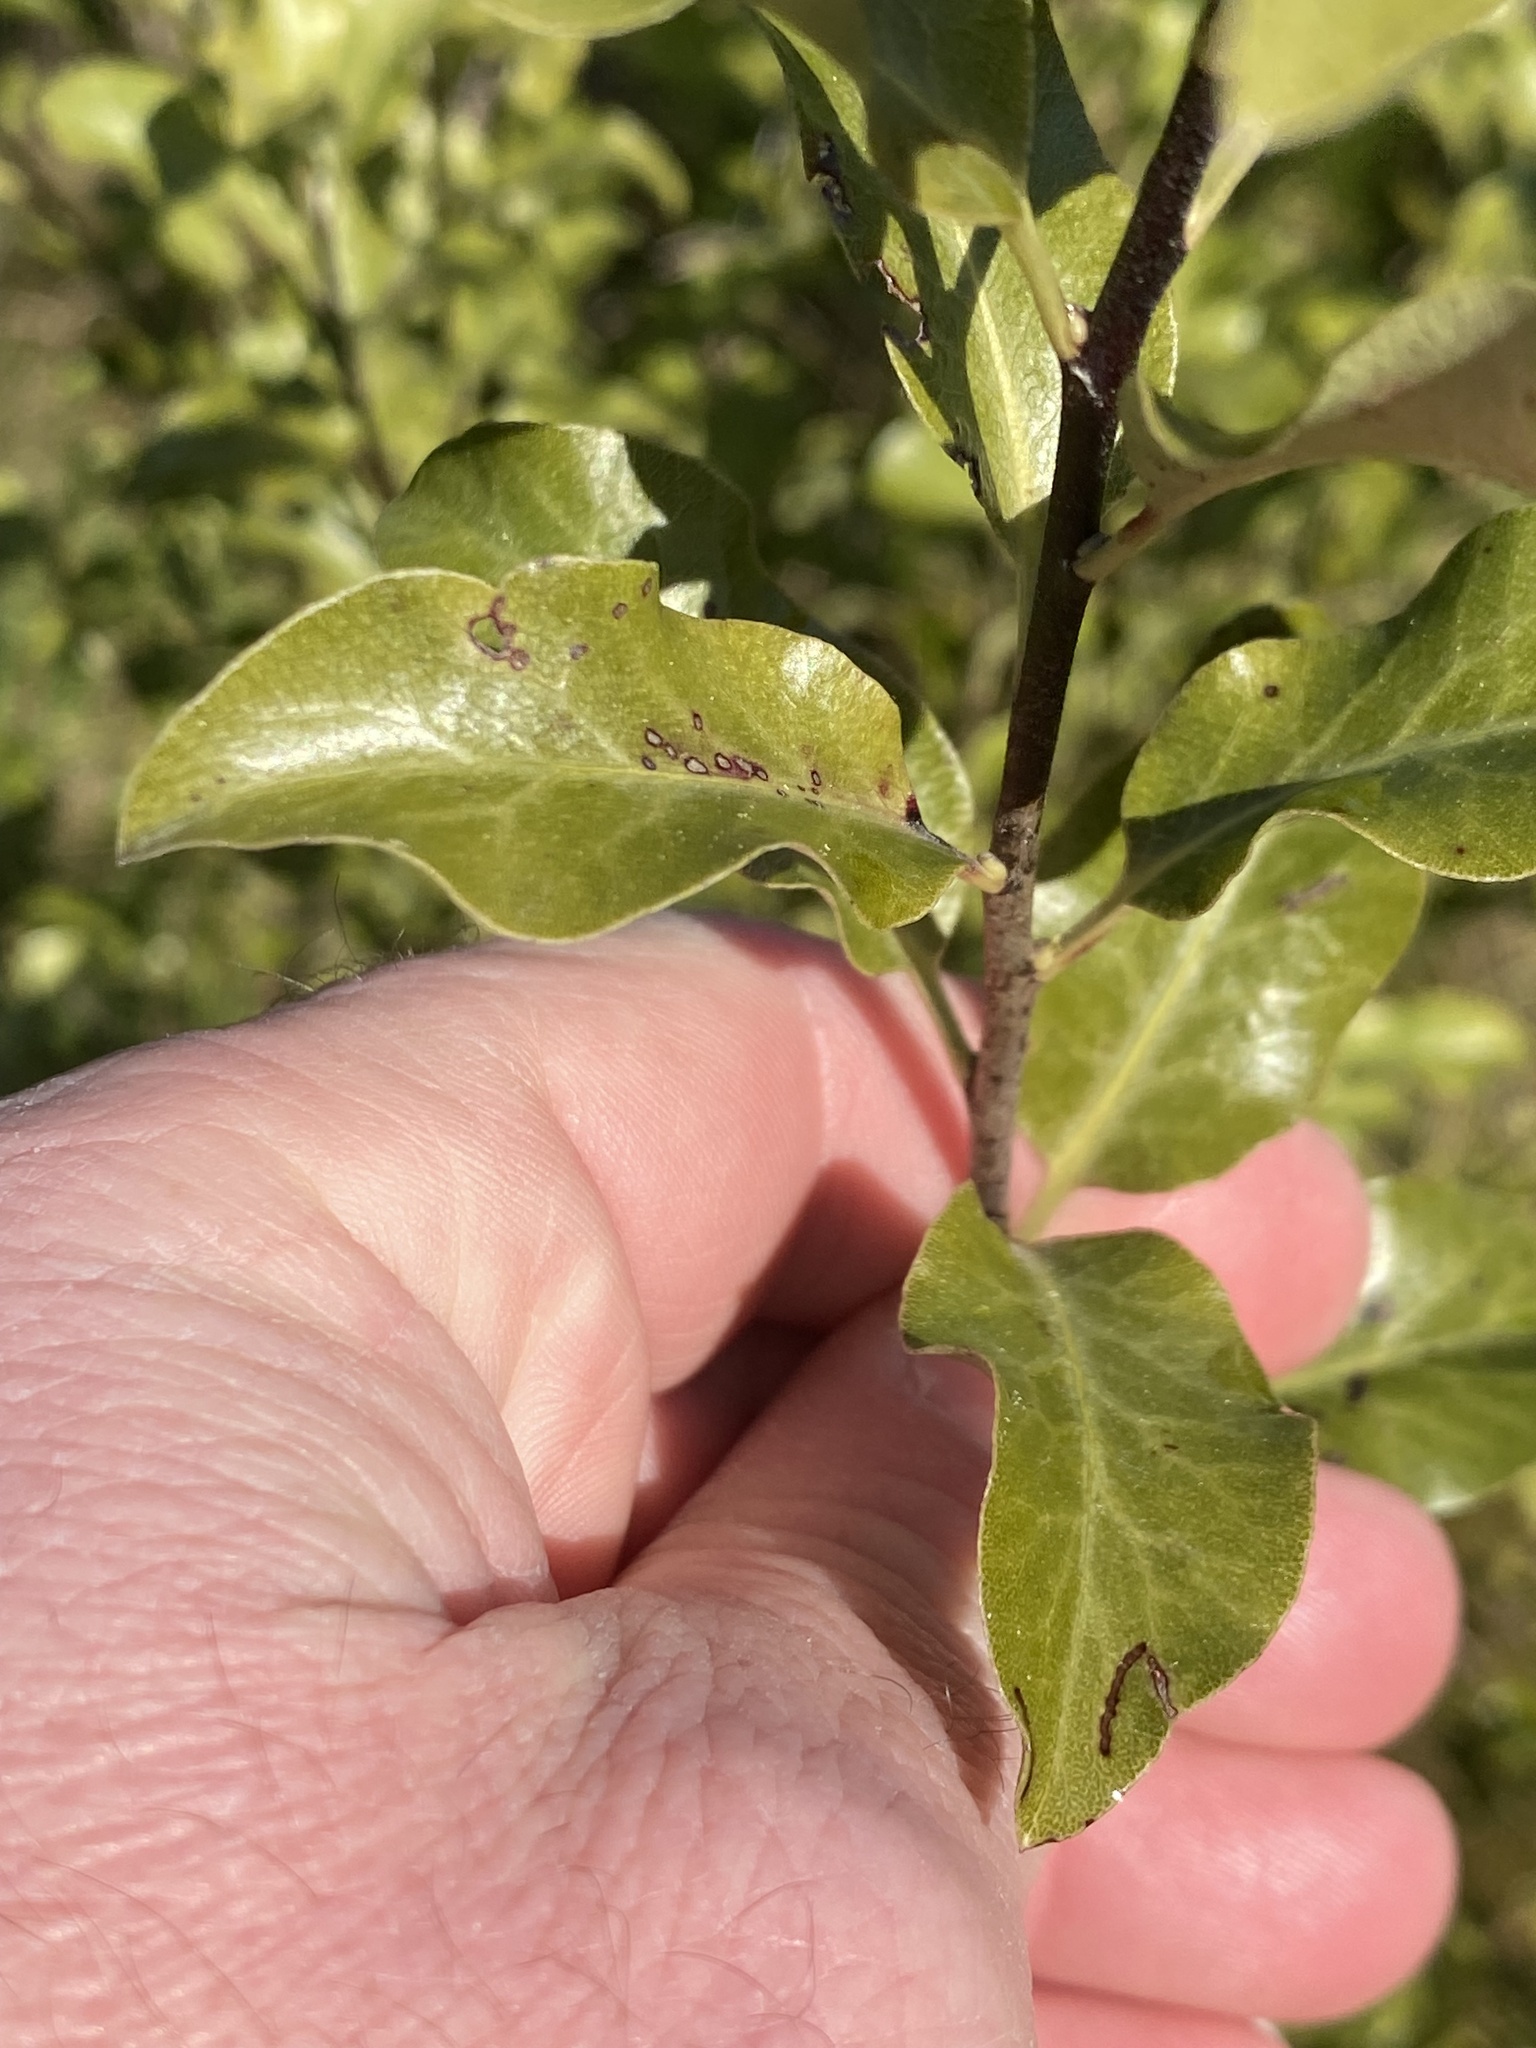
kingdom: Plantae
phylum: Tracheophyta
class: Magnoliopsida
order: Apiales
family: Pittosporaceae
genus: Pittosporum
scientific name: Pittosporum tenuifolium
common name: Kohuhu
